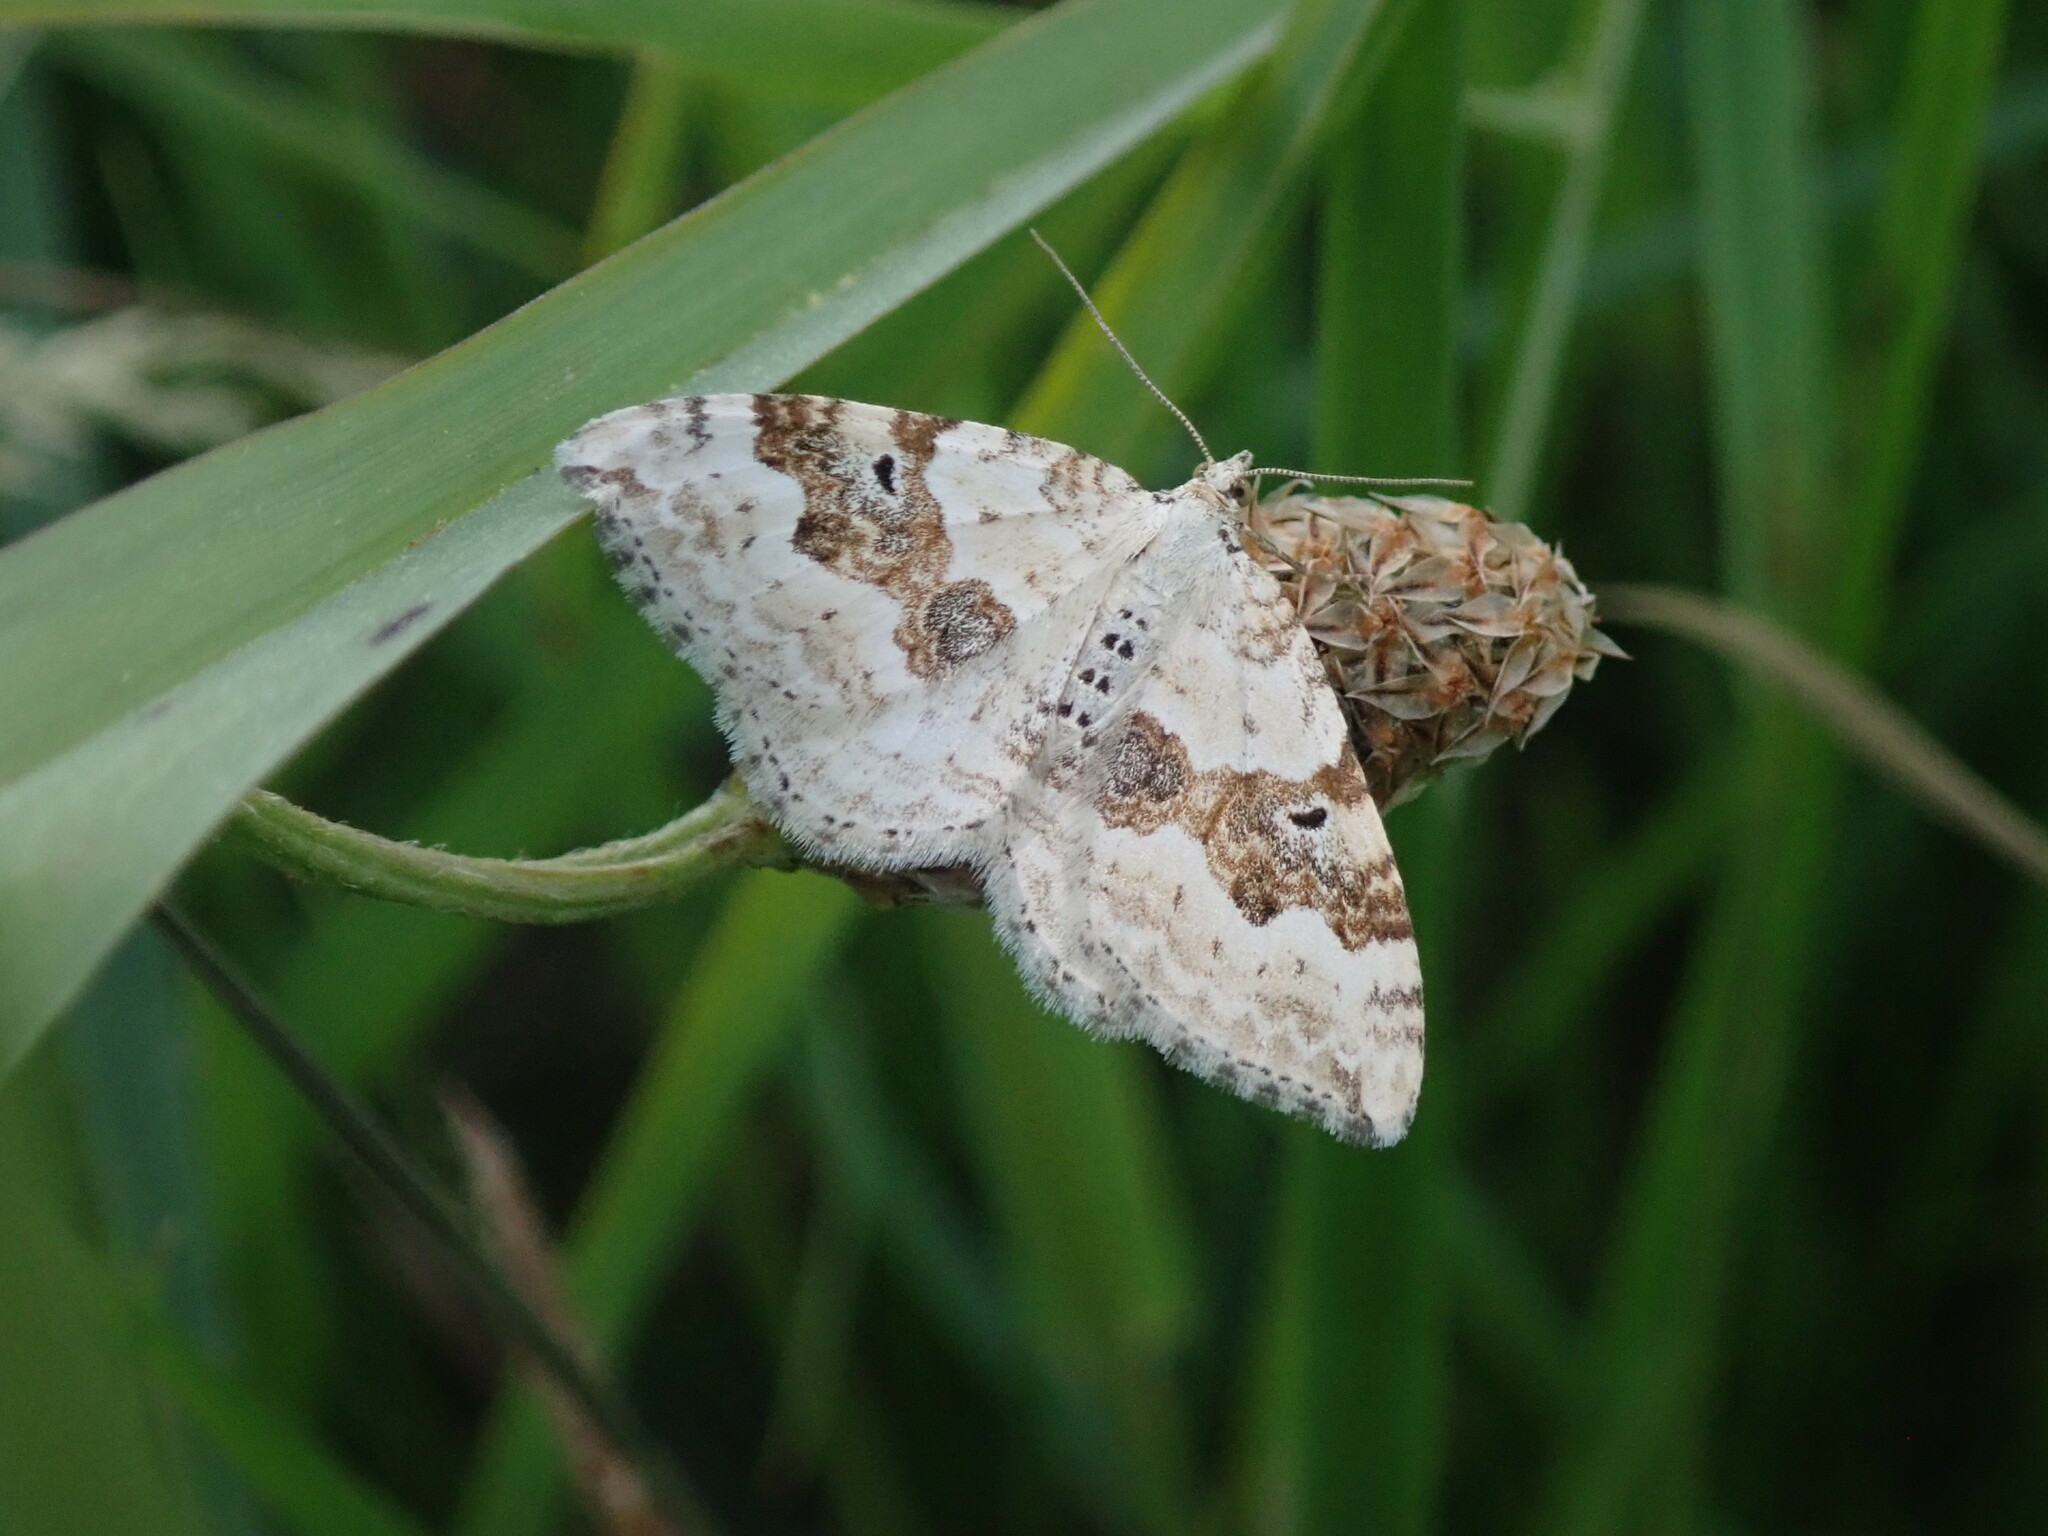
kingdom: Animalia
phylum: Arthropoda
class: Insecta
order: Lepidoptera
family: Geometridae
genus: Xanthorhoe
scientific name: Xanthorhoe montanata
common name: Silver-ground carpet
